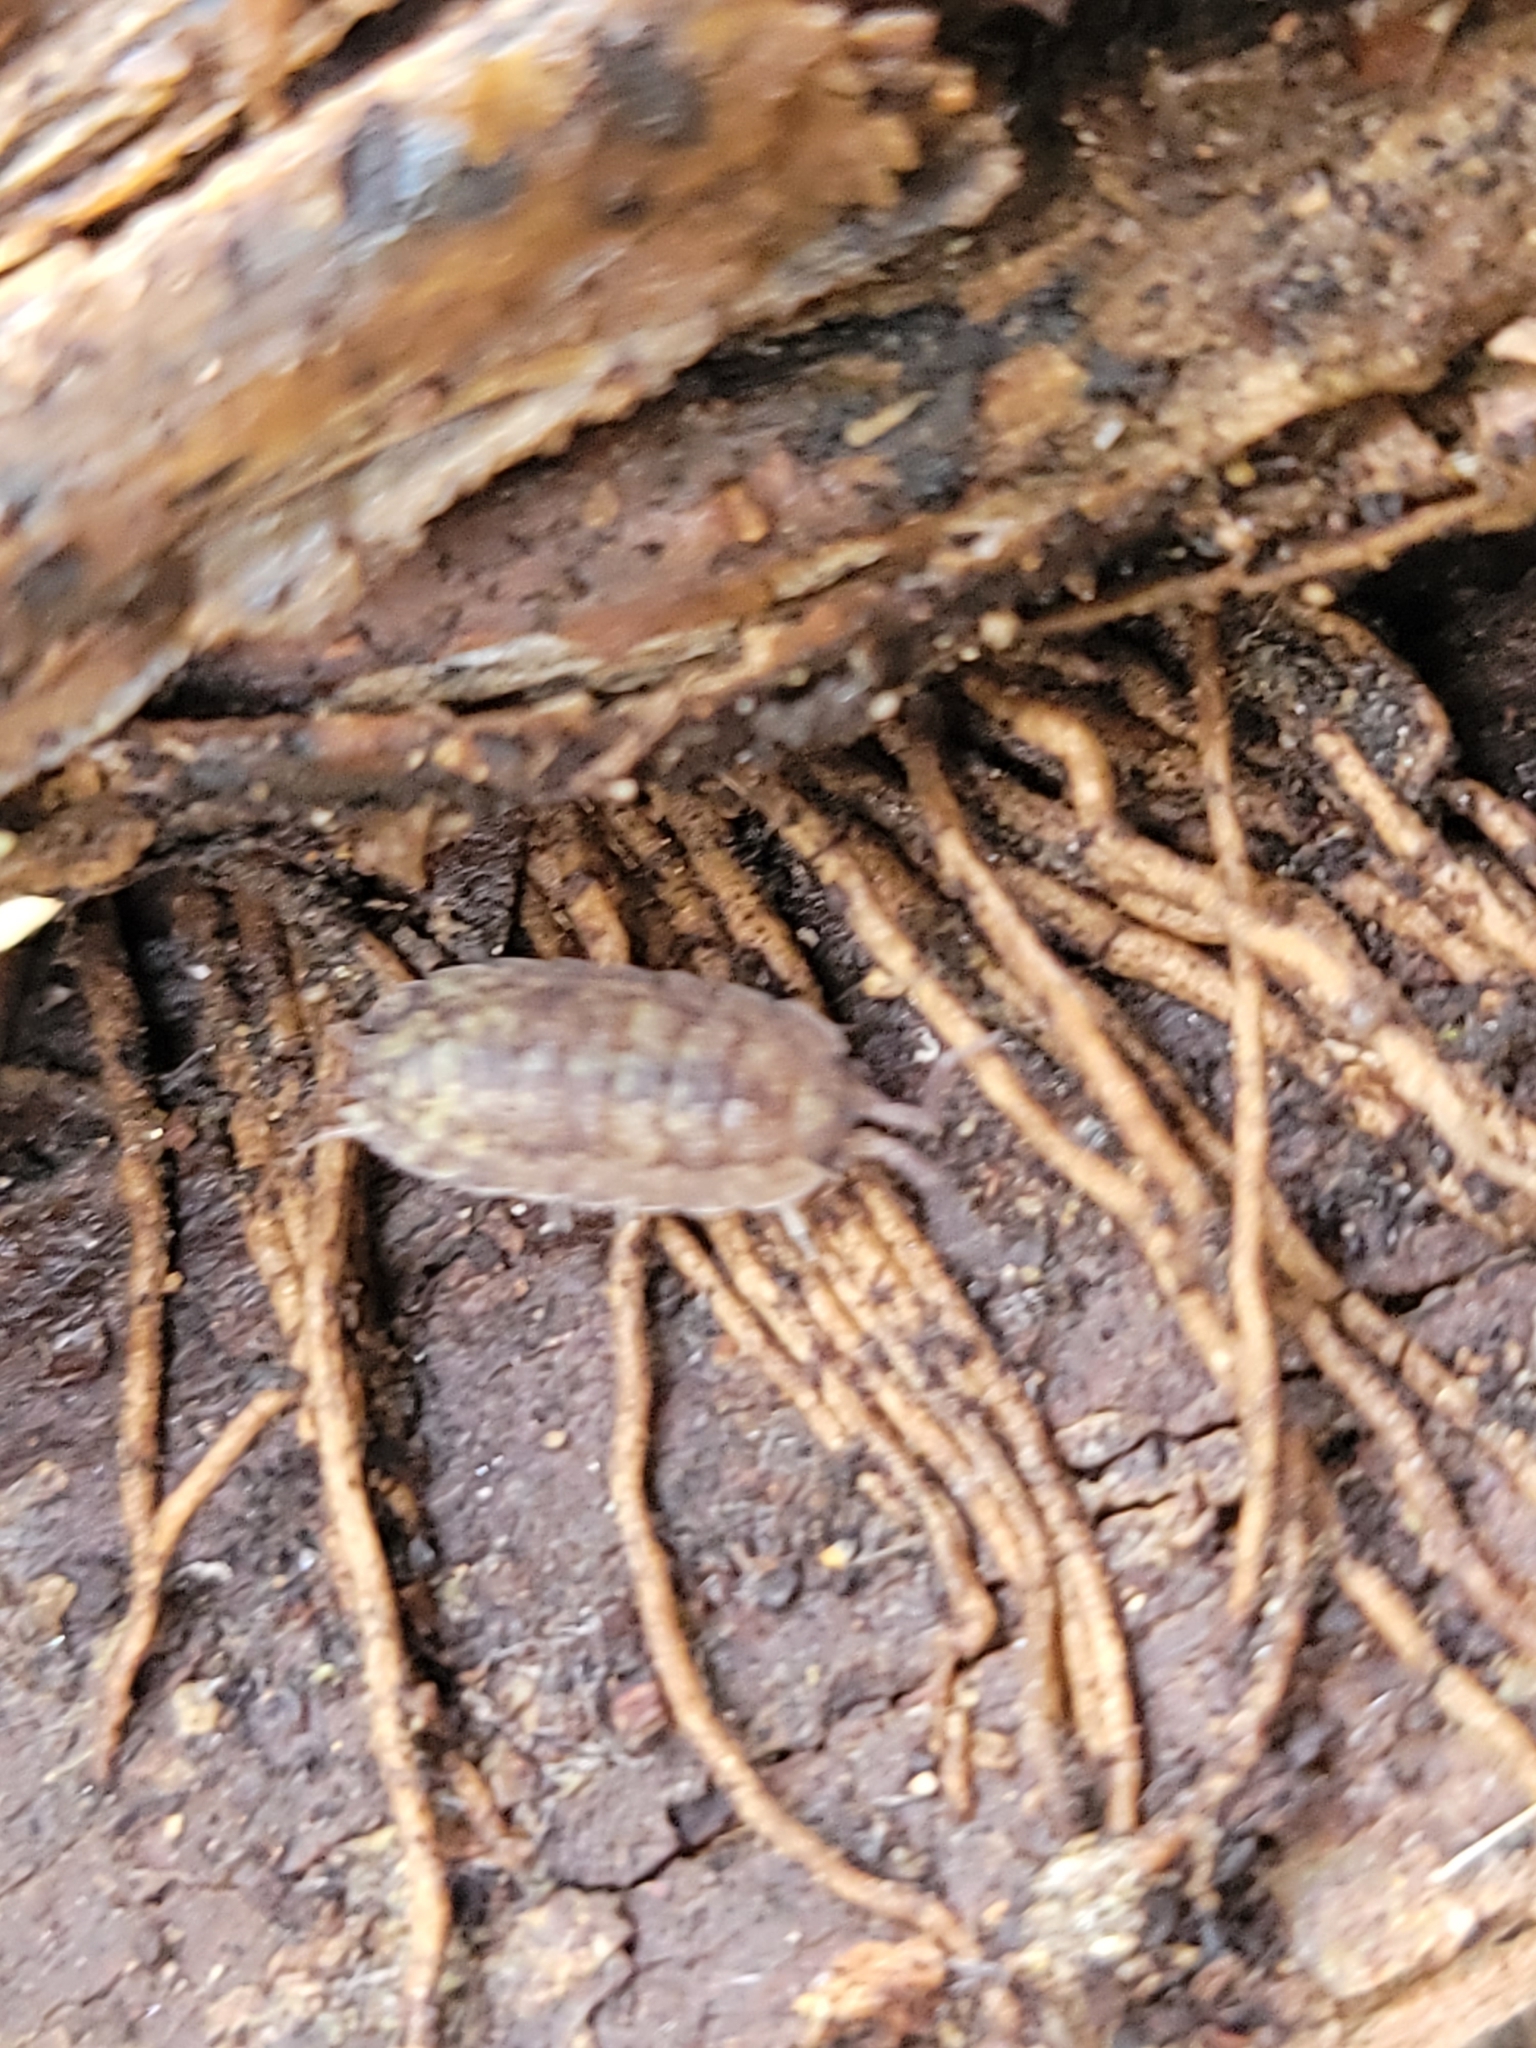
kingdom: Animalia
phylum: Arthropoda
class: Malacostraca
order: Isopoda
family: Porcellionidae
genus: Porcellio
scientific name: Porcellio scaber
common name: Common rough woodlouse
